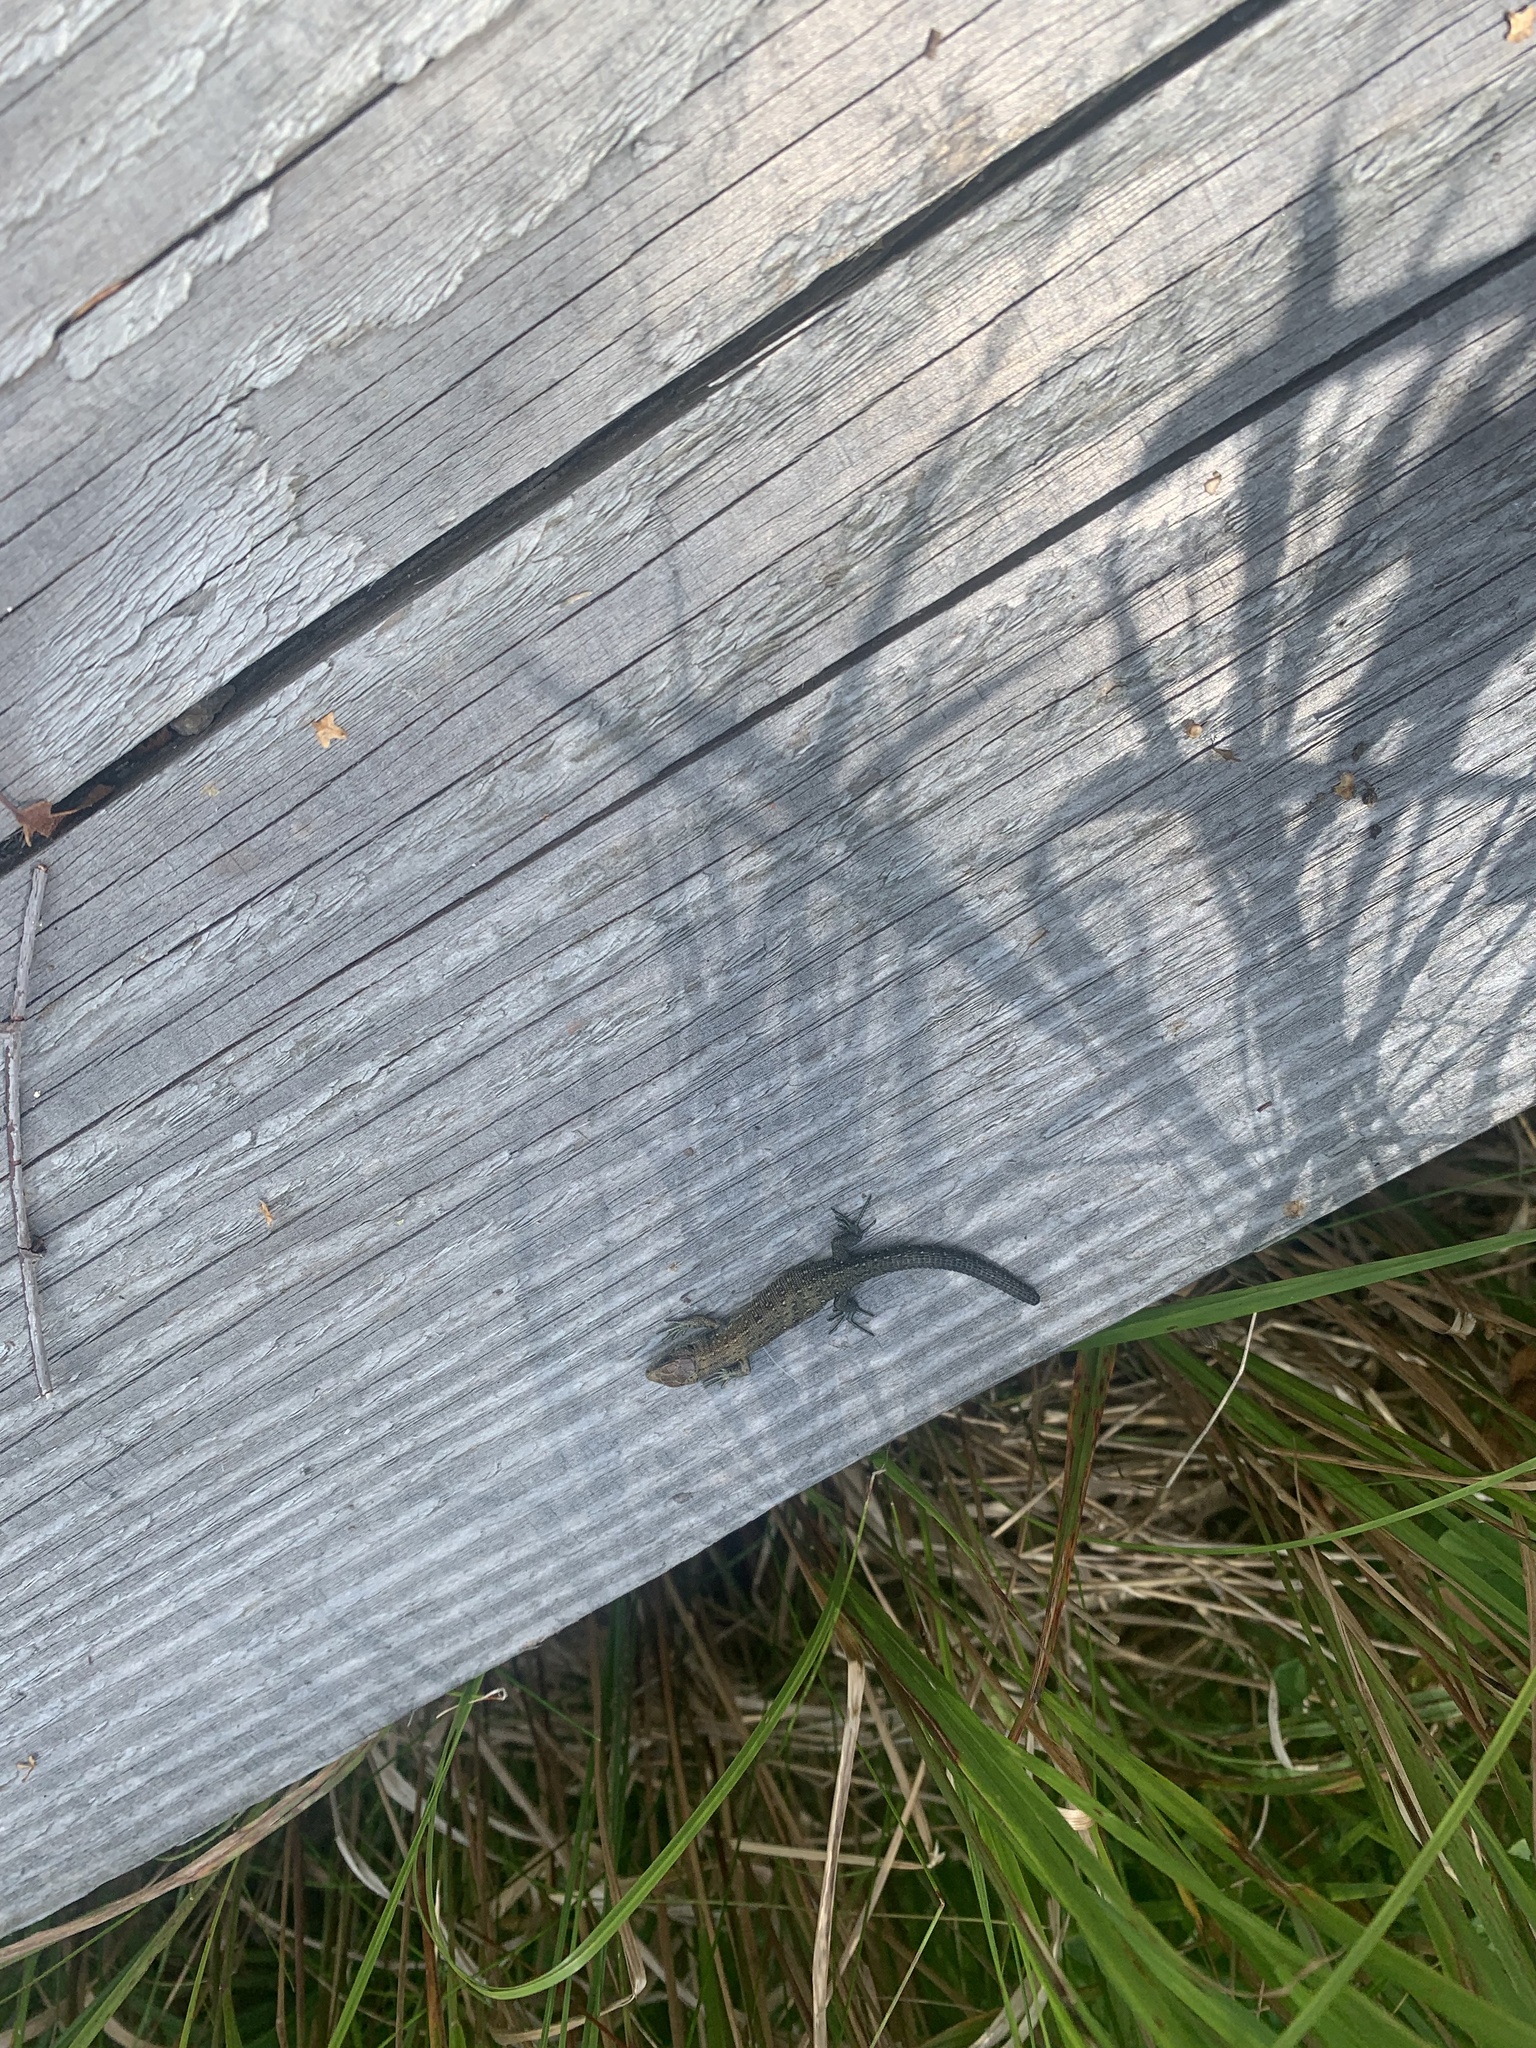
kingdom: Animalia
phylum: Chordata
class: Squamata
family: Lacertidae
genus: Zootoca
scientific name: Zootoca vivipara
